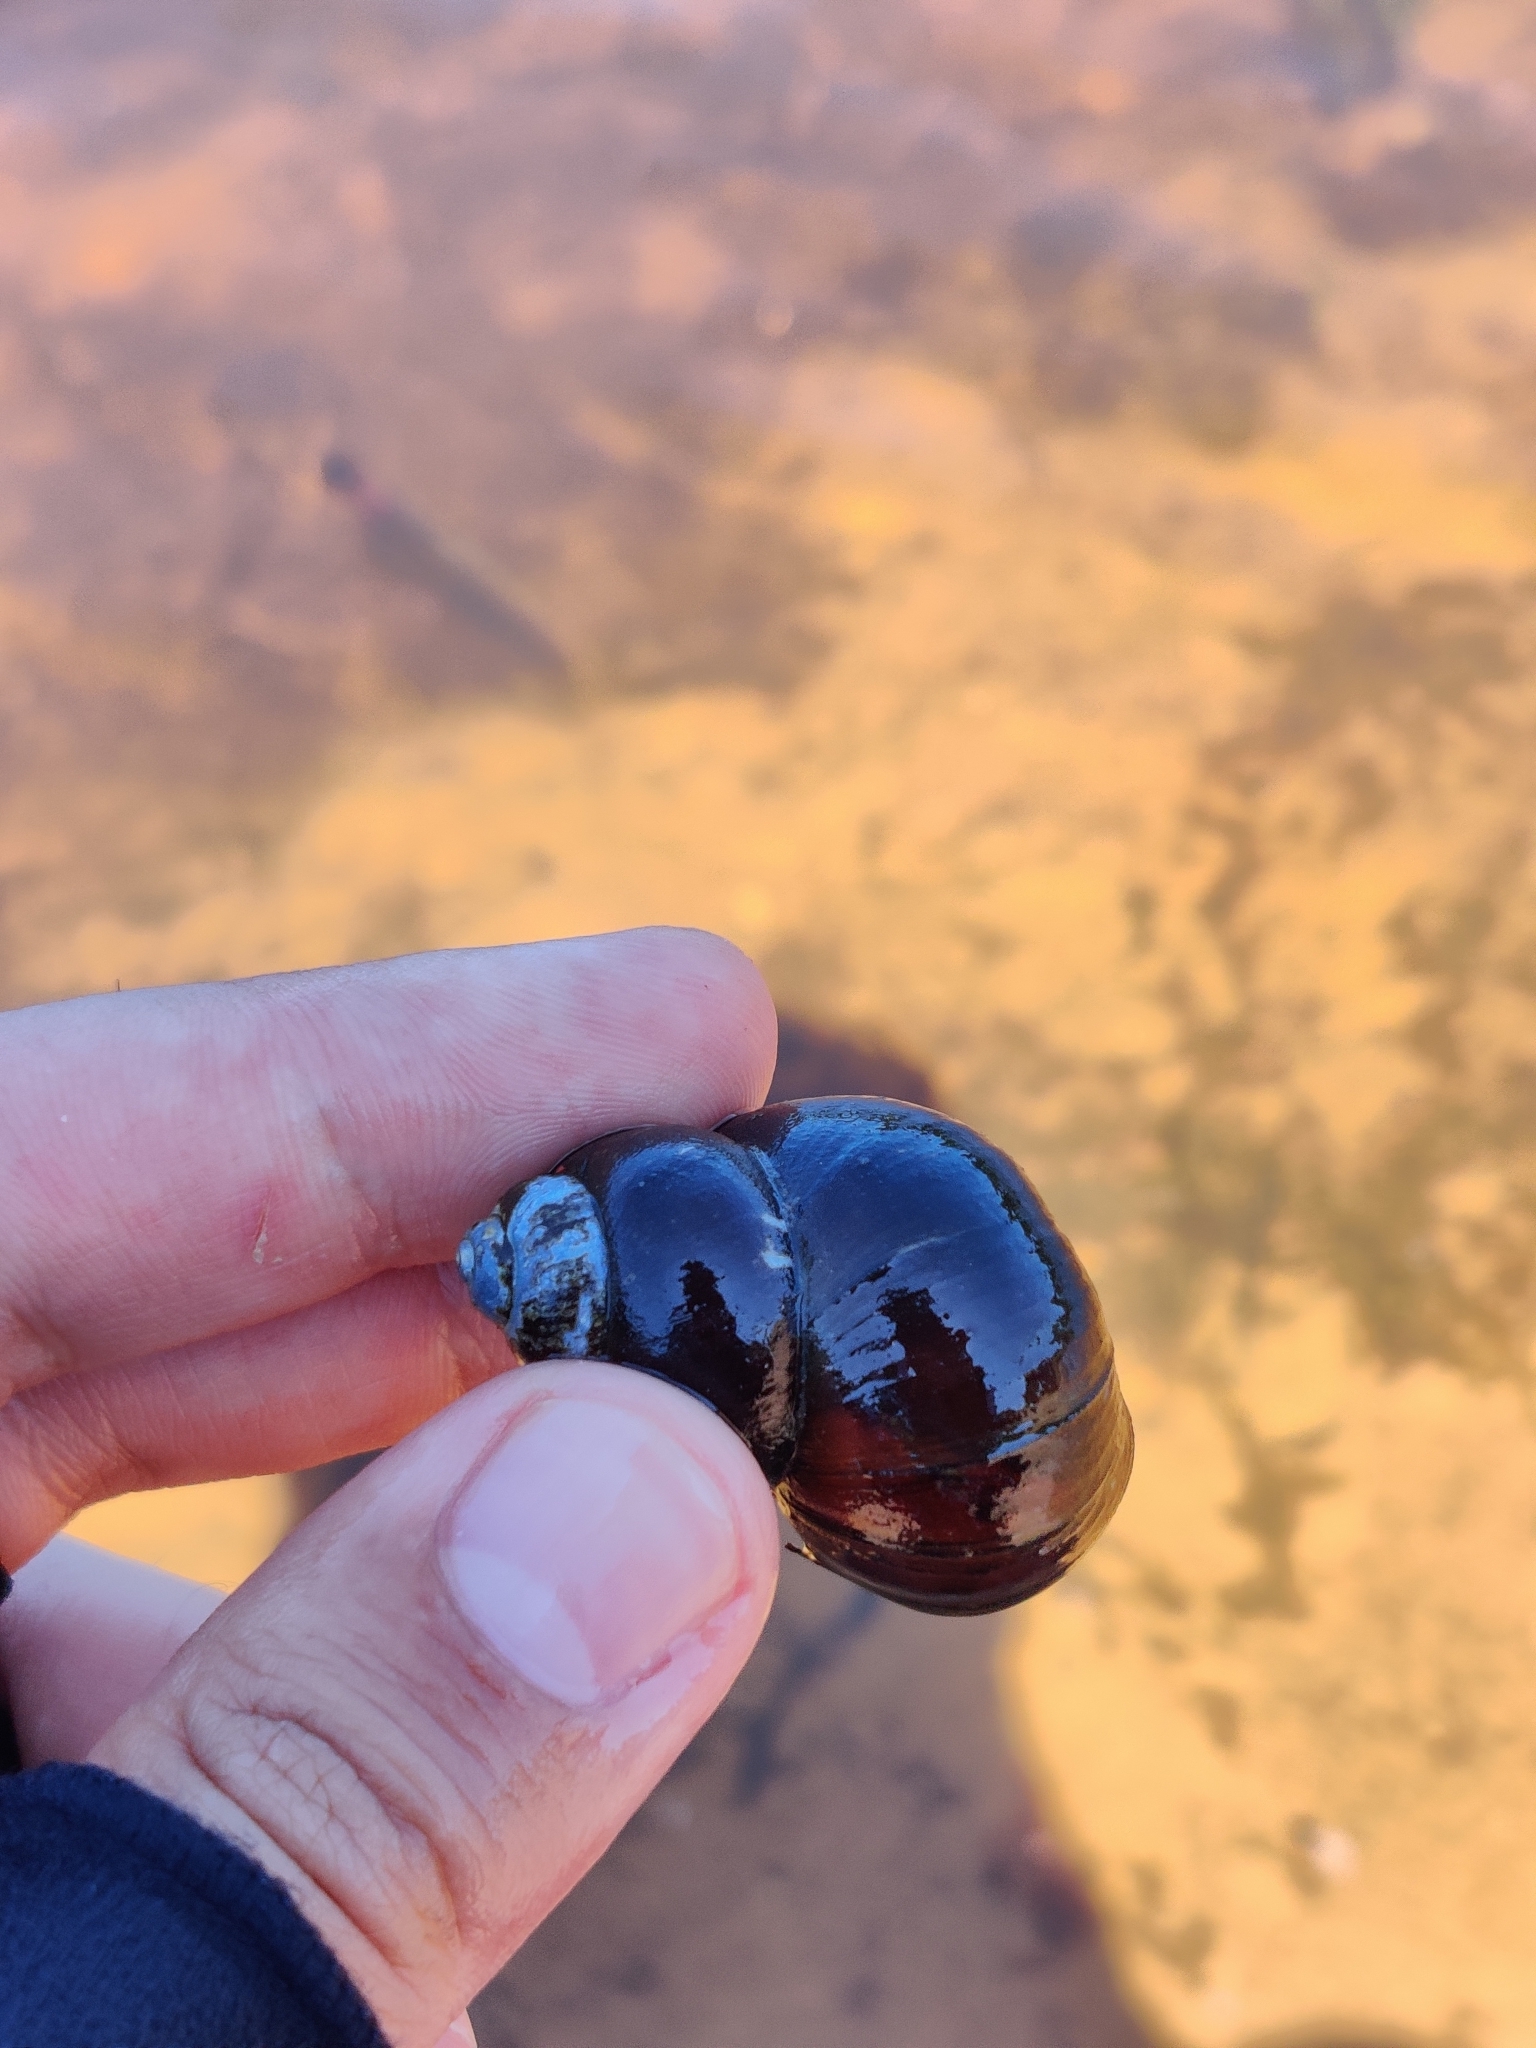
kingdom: Animalia
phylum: Mollusca
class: Gastropoda
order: Architaenioglossa
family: Viviparidae
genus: Viviparus
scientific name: Viviparus viviparus
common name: River snail
